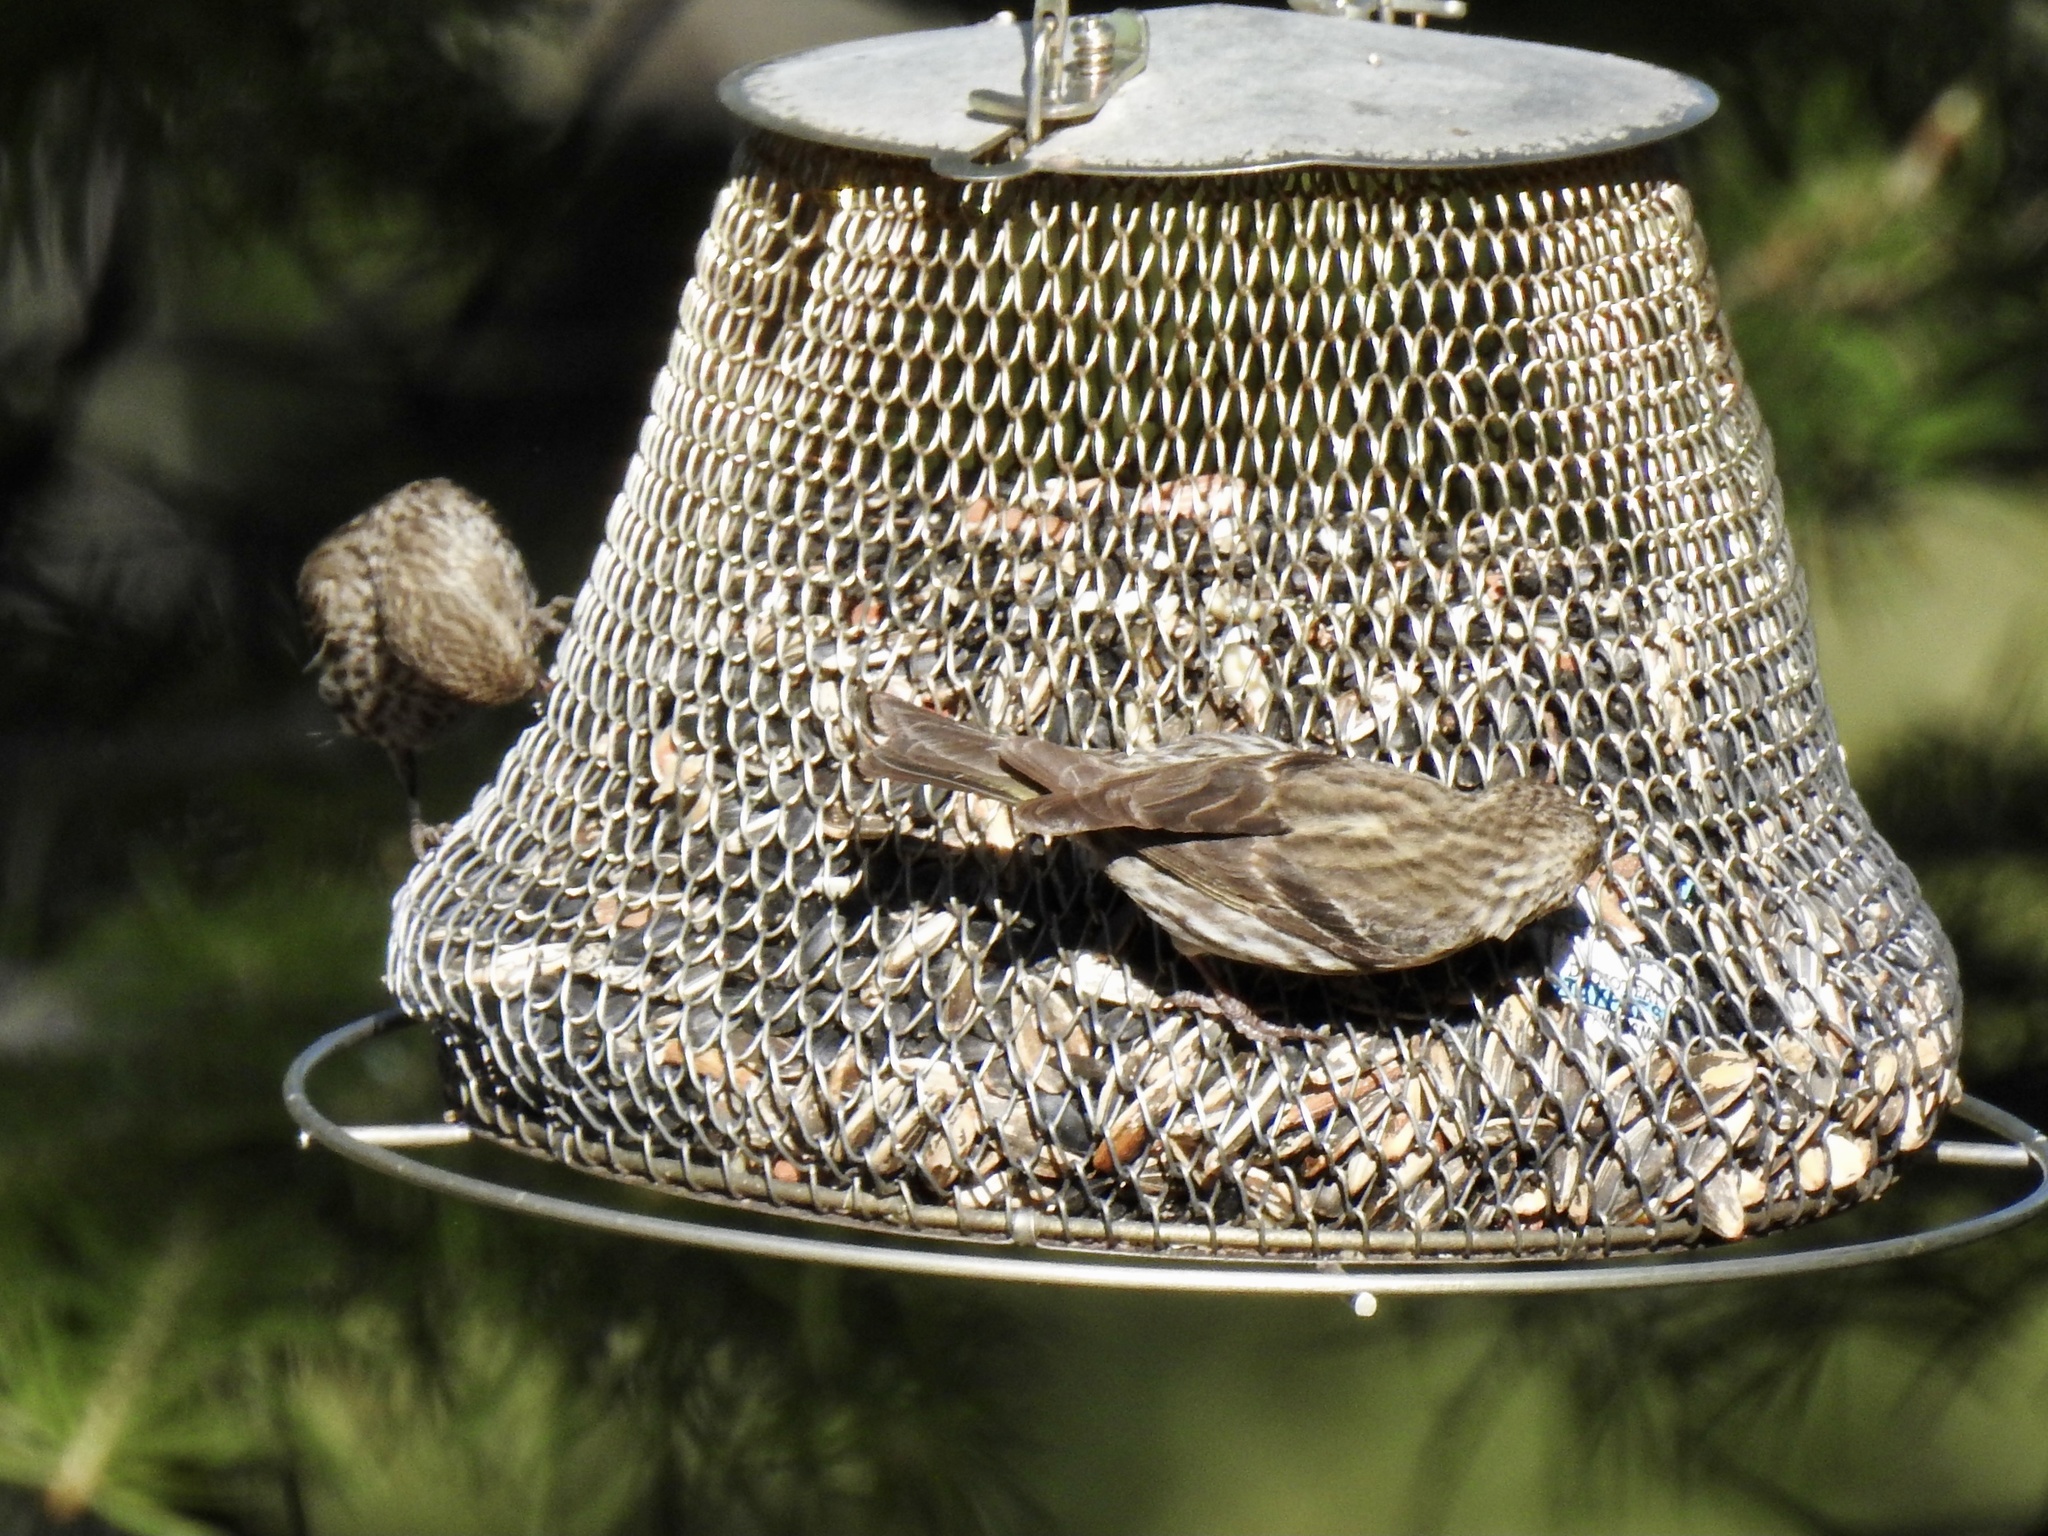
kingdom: Animalia
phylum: Chordata
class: Aves
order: Passeriformes
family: Fringillidae
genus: Spinus
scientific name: Spinus pinus
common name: Pine siskin
